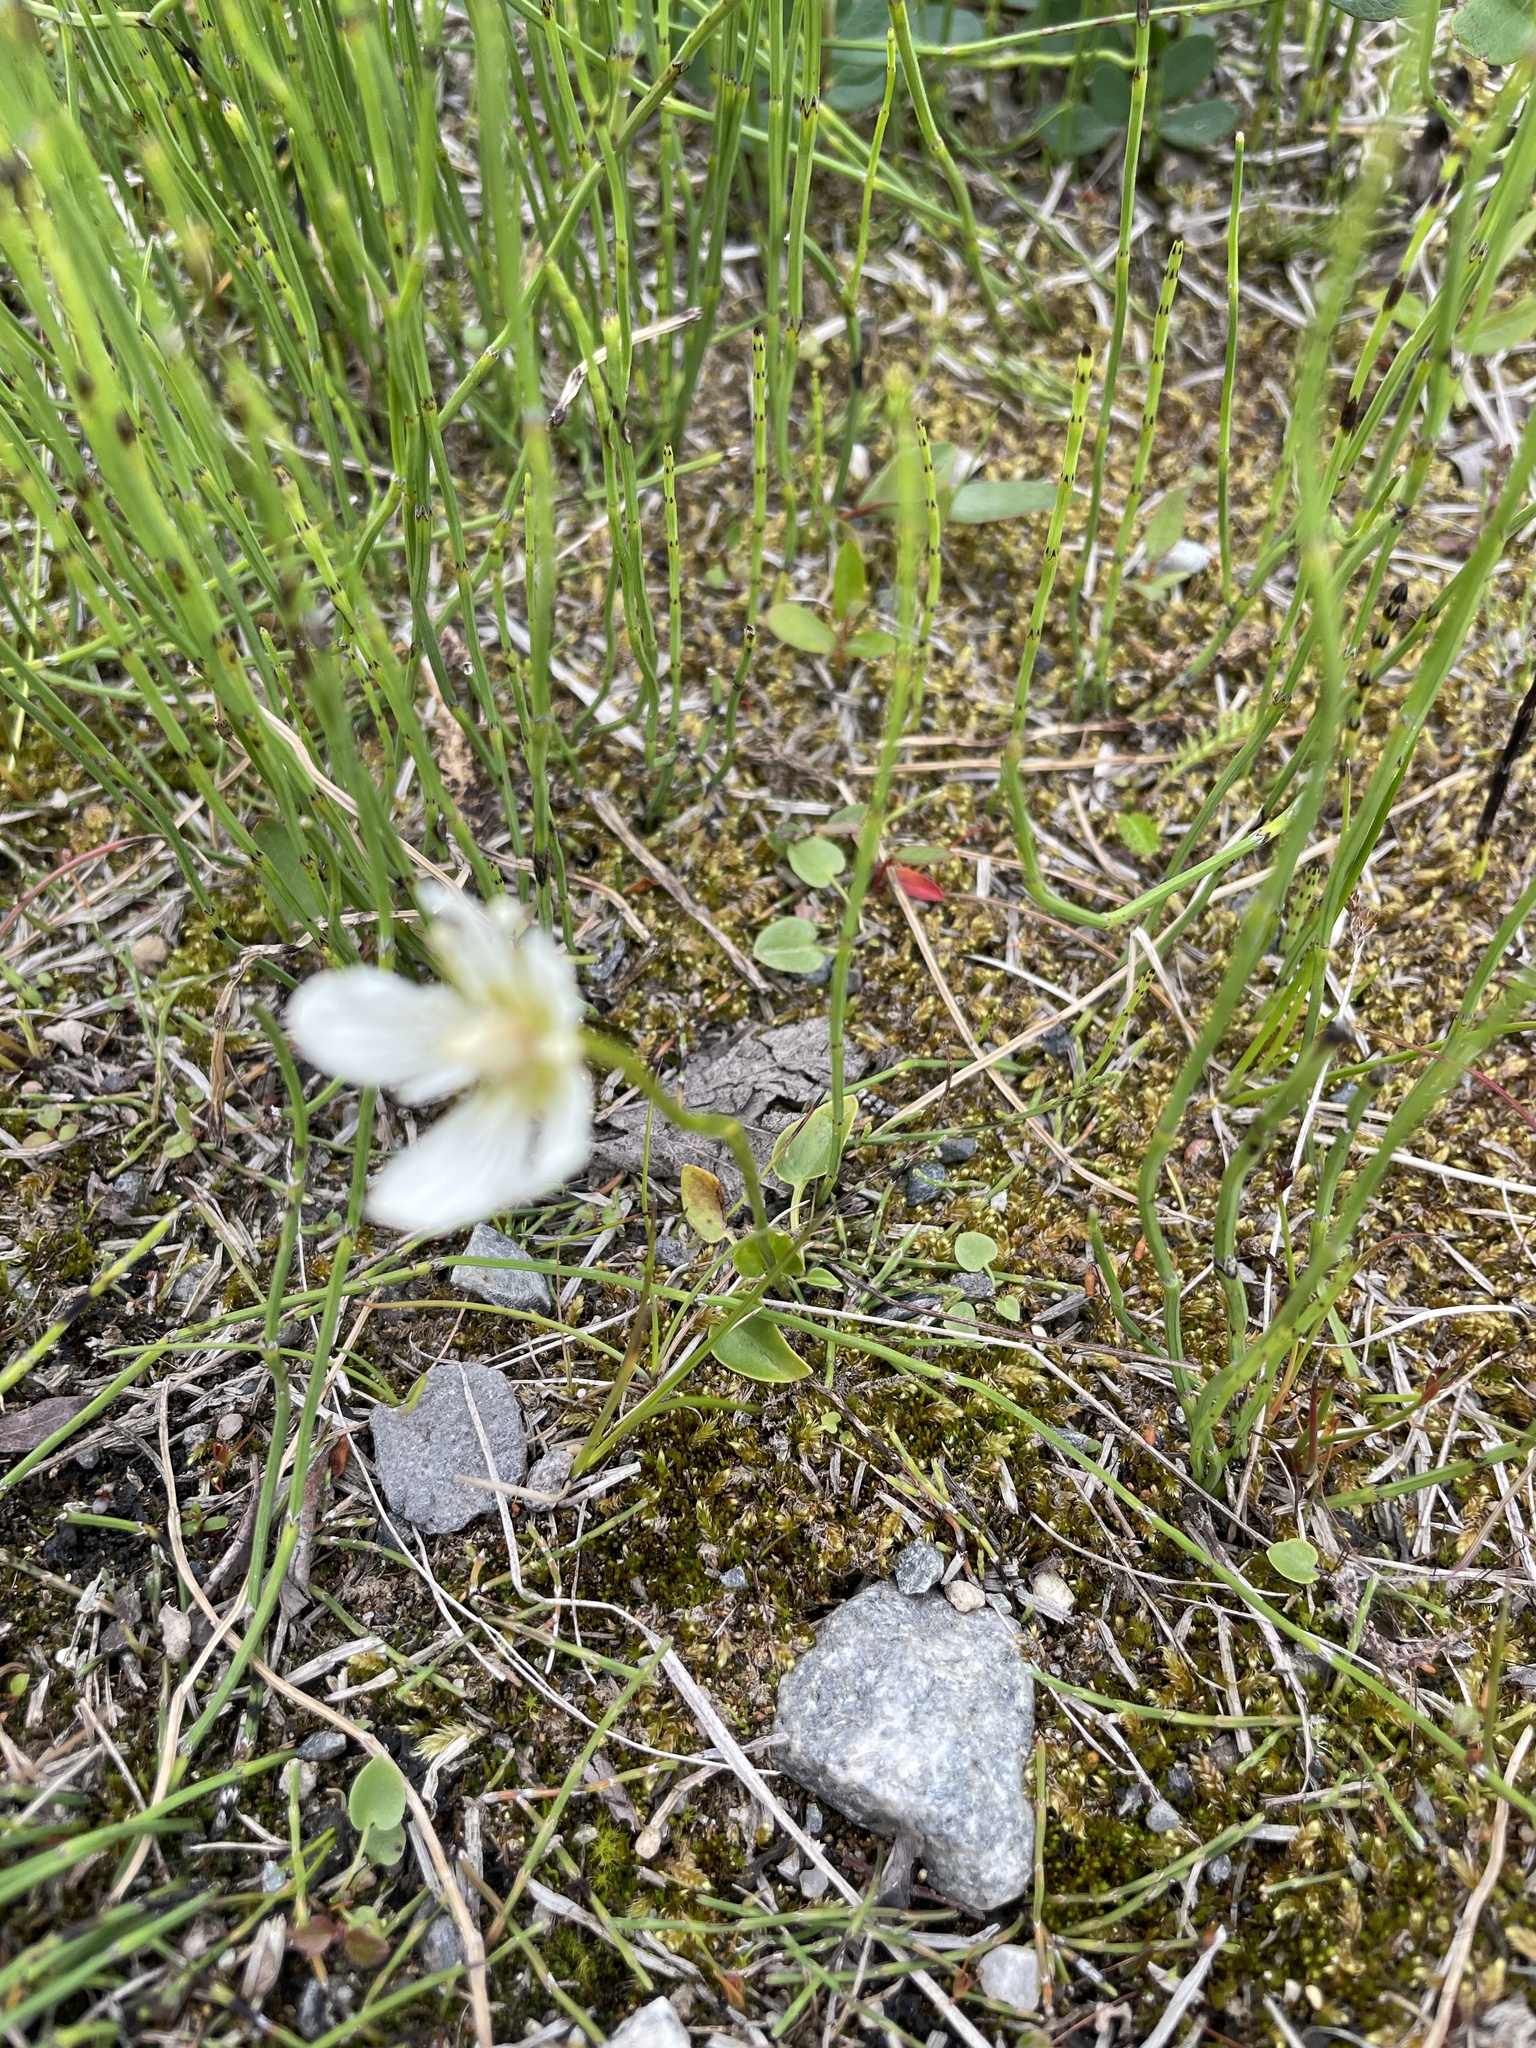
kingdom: Plantae
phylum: Tracheophyta
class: Magnoliopsida
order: Celastrales
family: Parnassiaceae
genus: Parnassia
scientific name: Parnassia palustris
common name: Grass-of-parnassus
